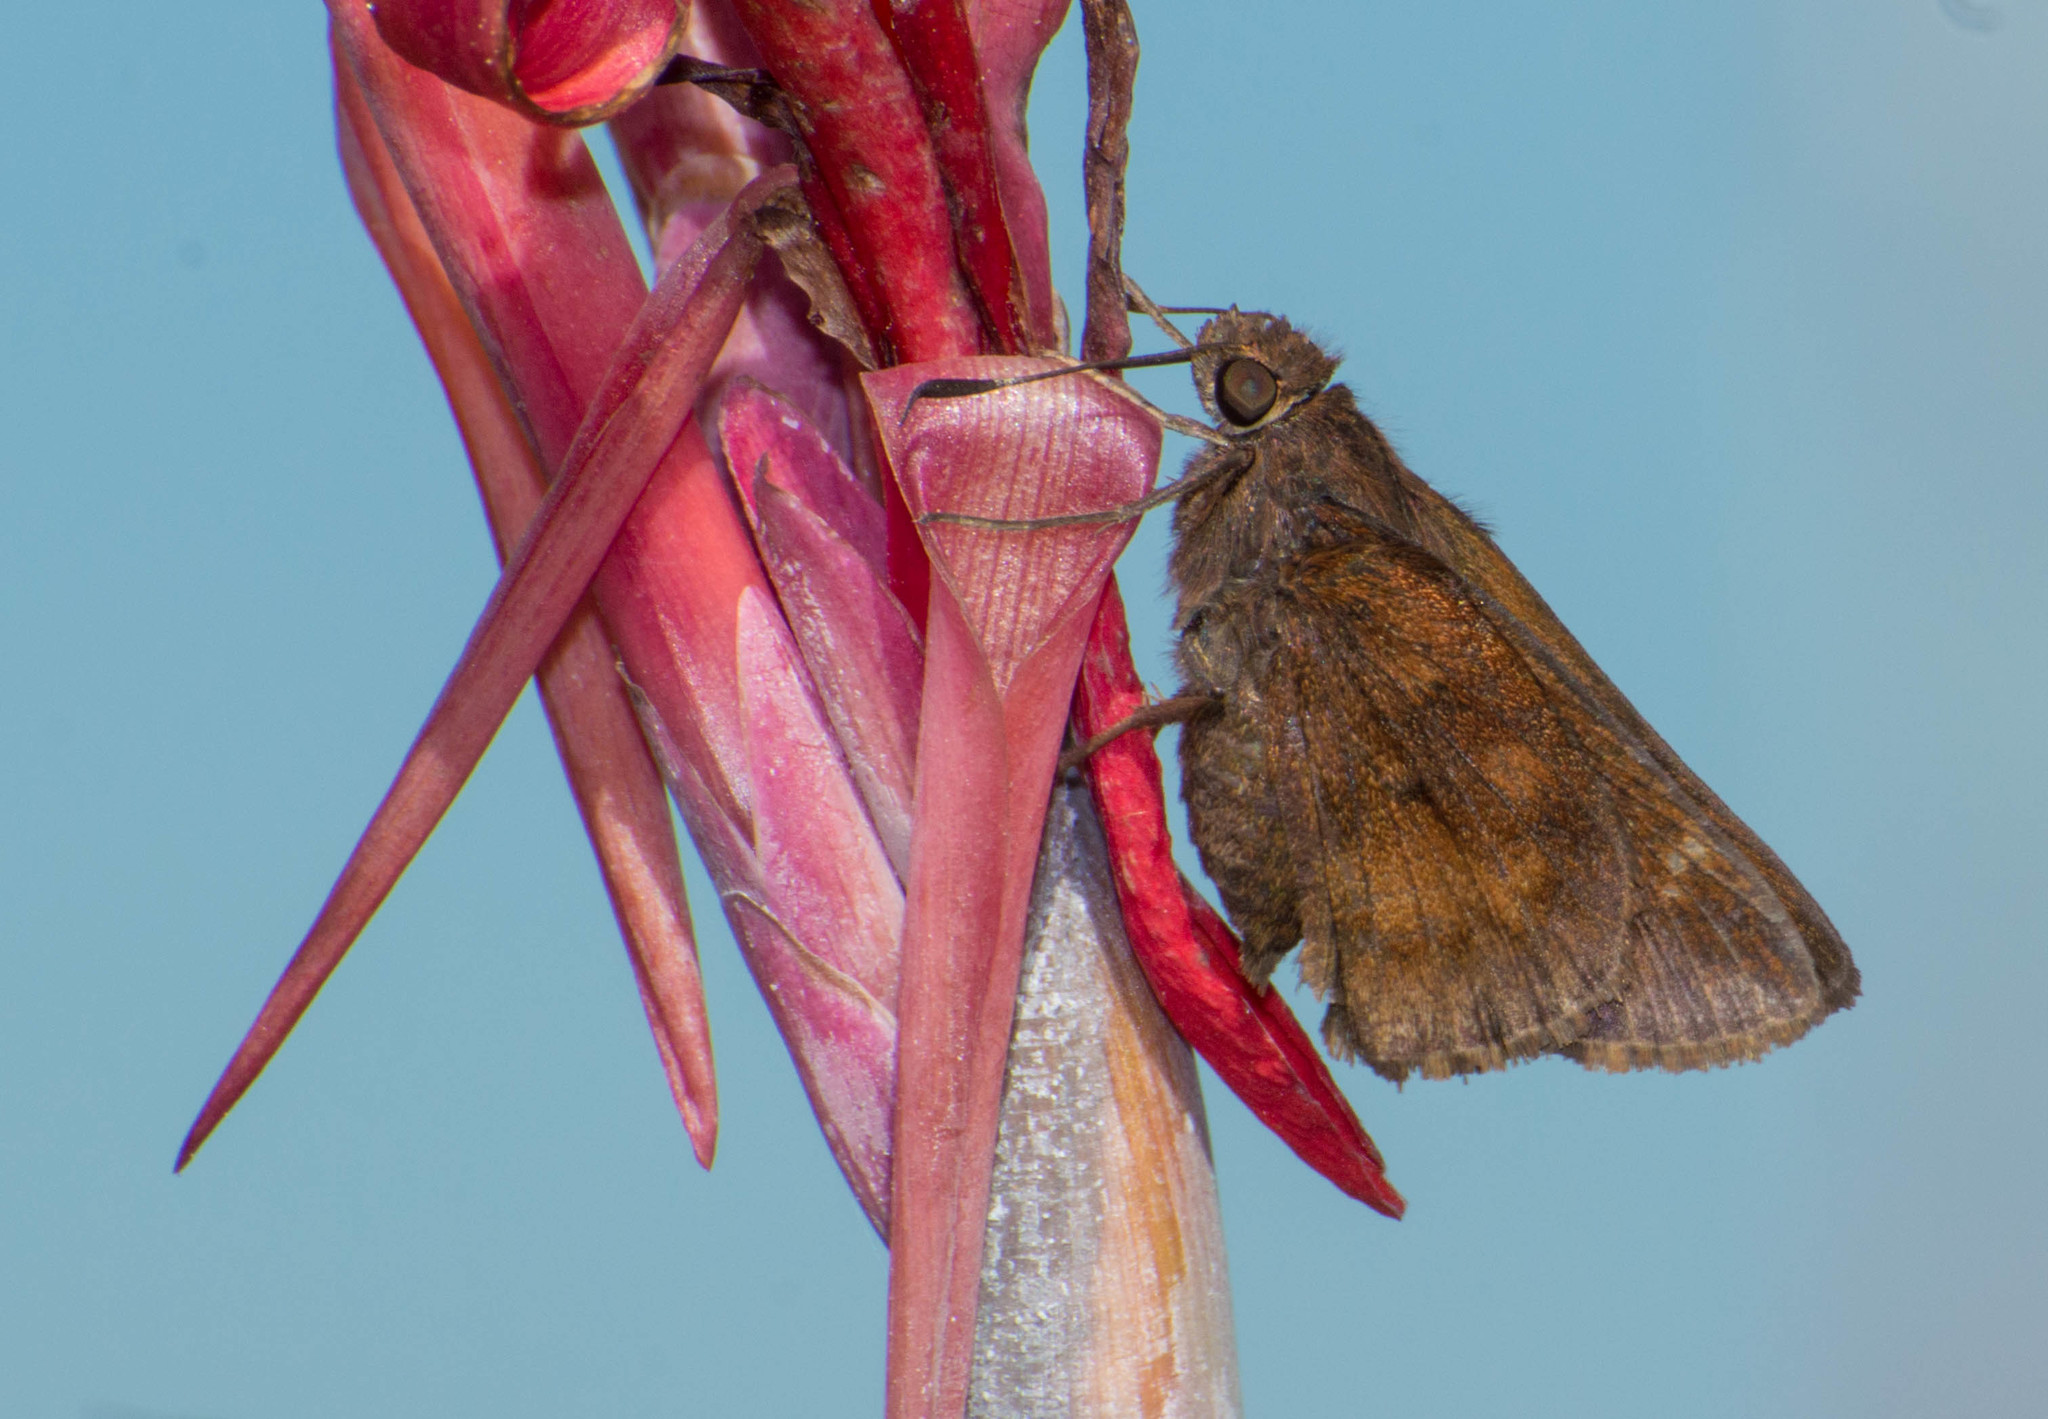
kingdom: Animalia
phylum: Arthropoda
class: Insecta
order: Lepidoptera
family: Hesperiidae
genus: Quinta
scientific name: Quinta cannae
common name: Canna skipper
